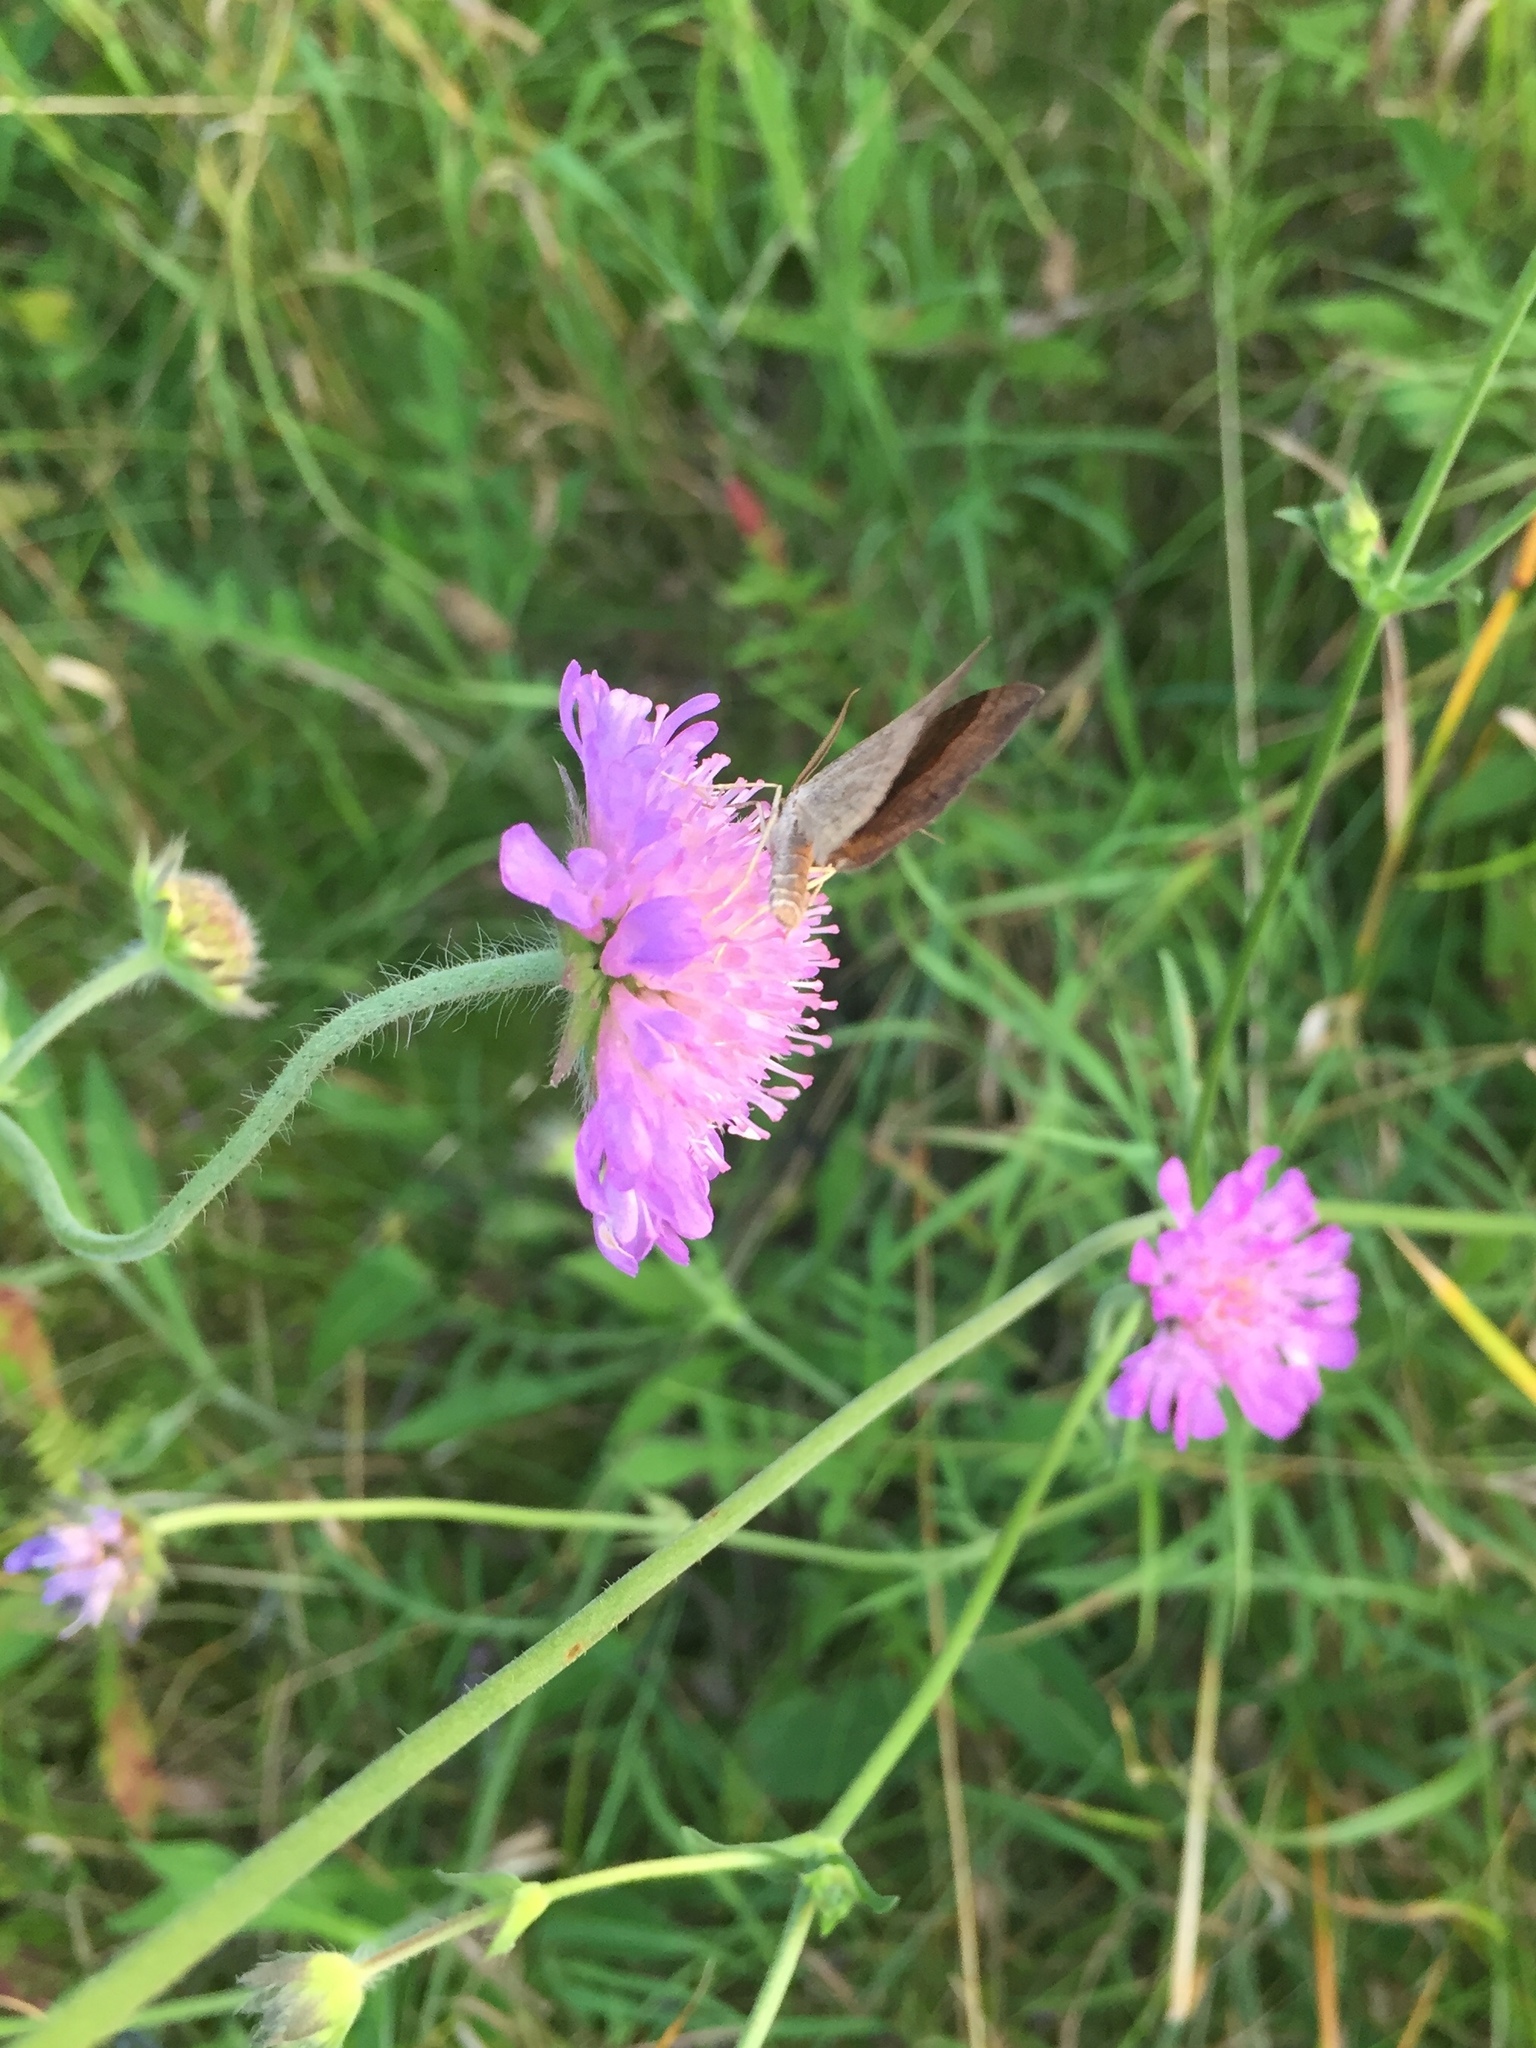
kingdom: Plantae
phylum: Tracheophyta
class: Magnoliopsida
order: Dipsacales
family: Caprifoliaceae
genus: Knautia
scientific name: Knautia arvensis
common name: Field scabiosa
